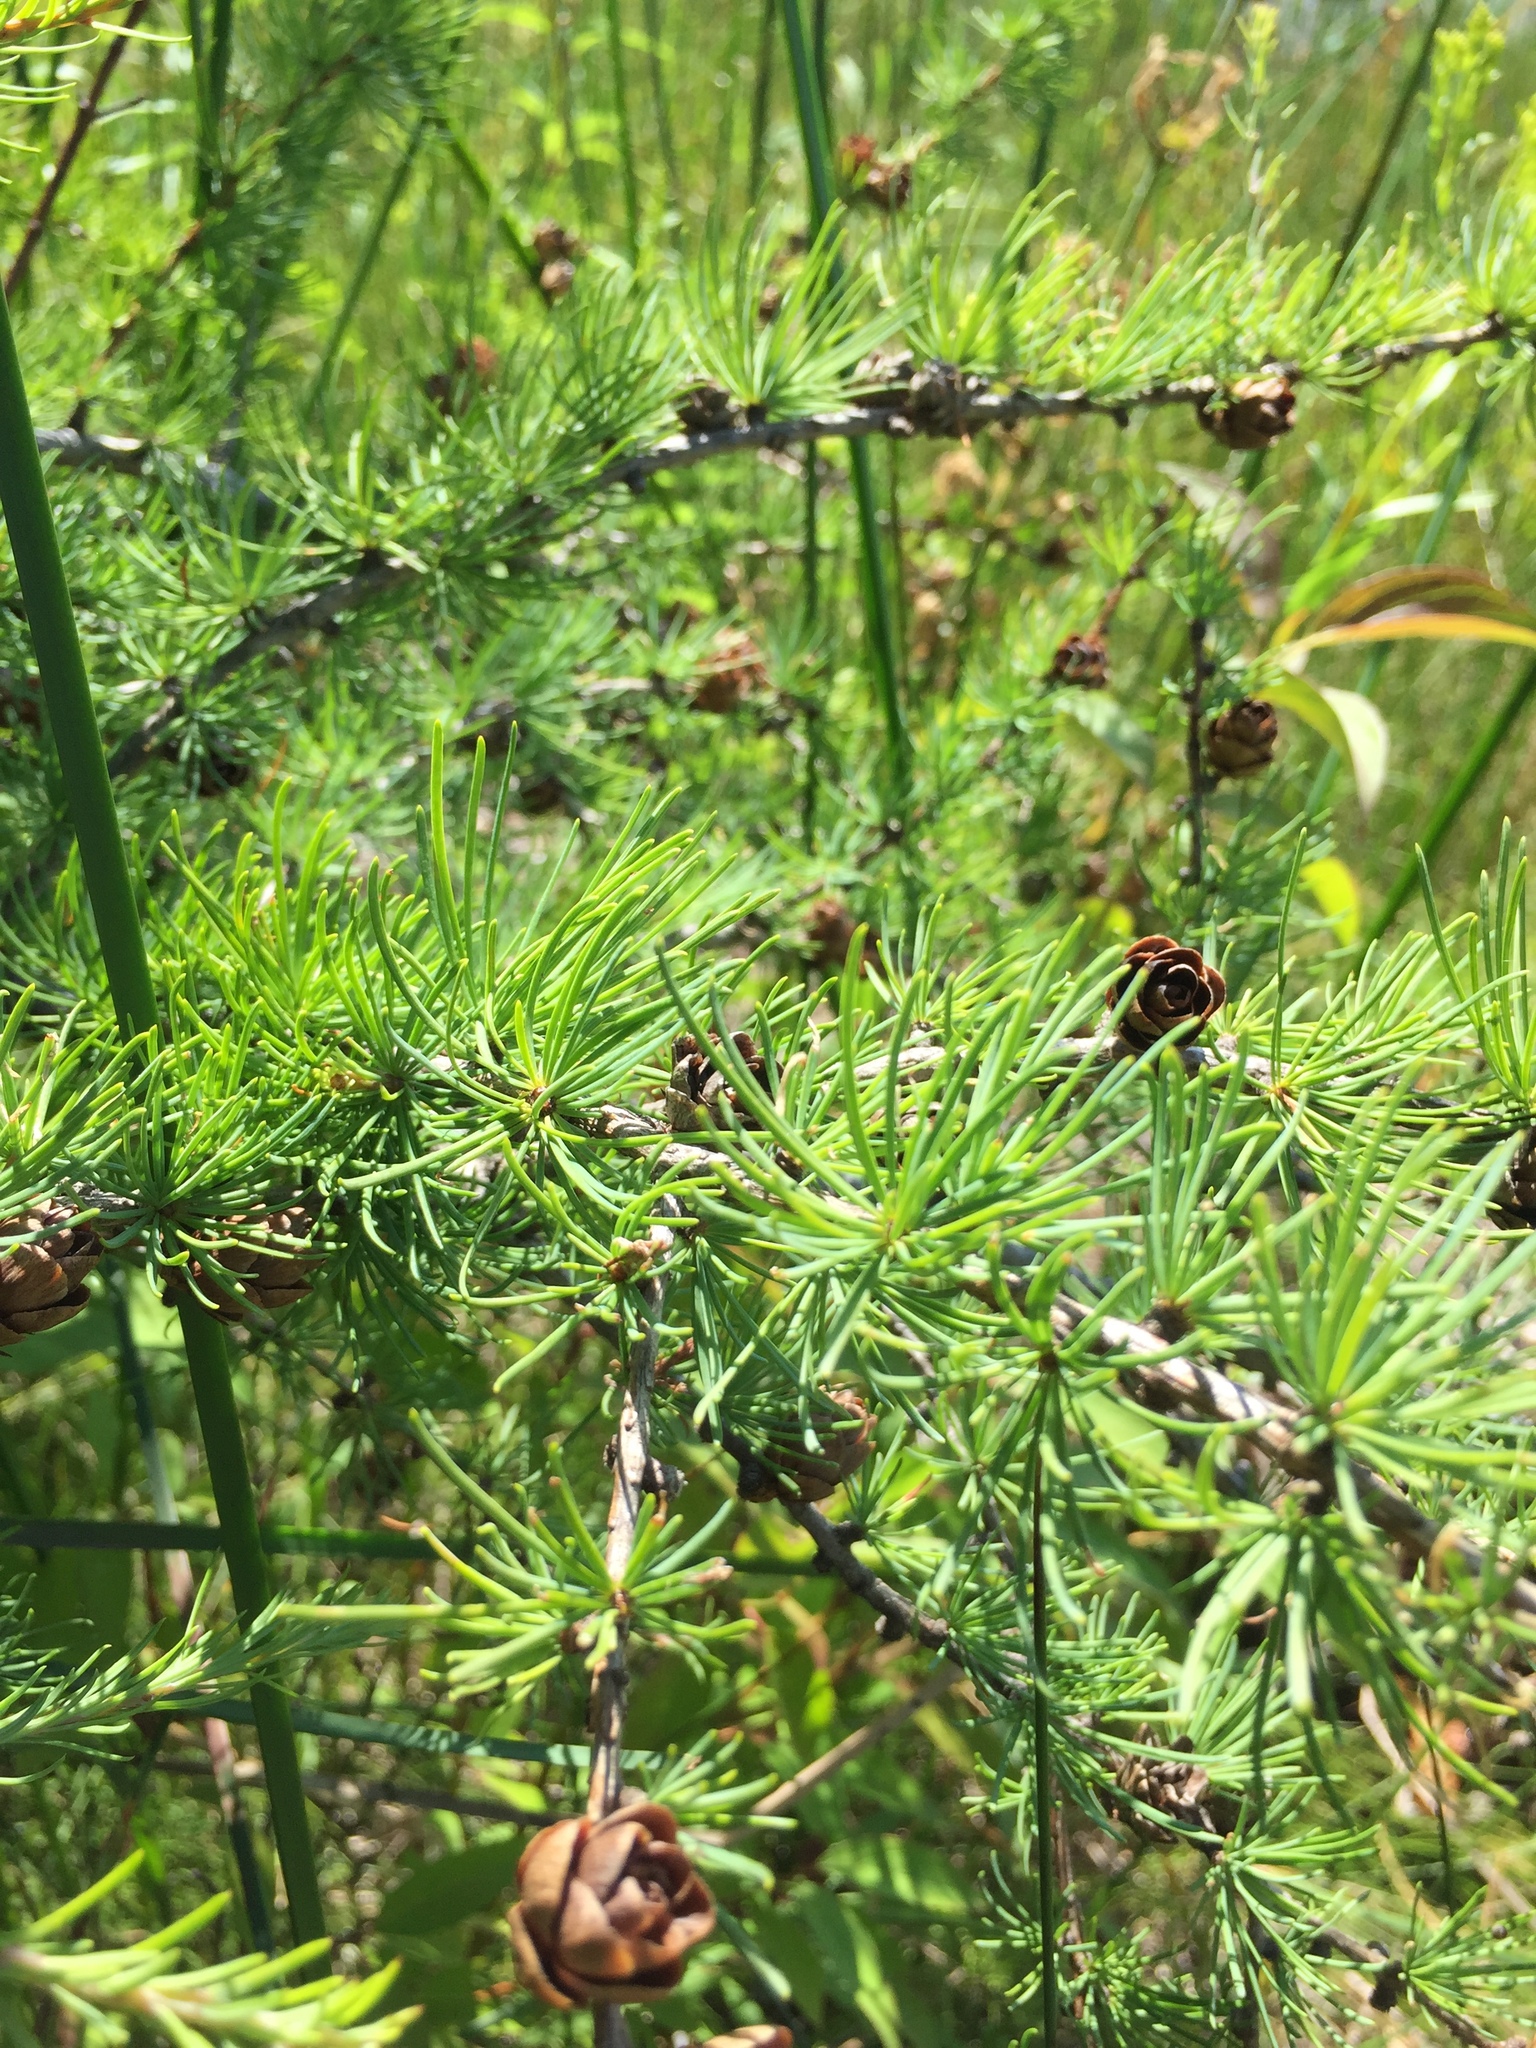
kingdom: Plantae
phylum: Tracheophyta
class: Pinopsida
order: Pinales
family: Pinaceae
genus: Larix
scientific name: Larix laricina
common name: American larch
